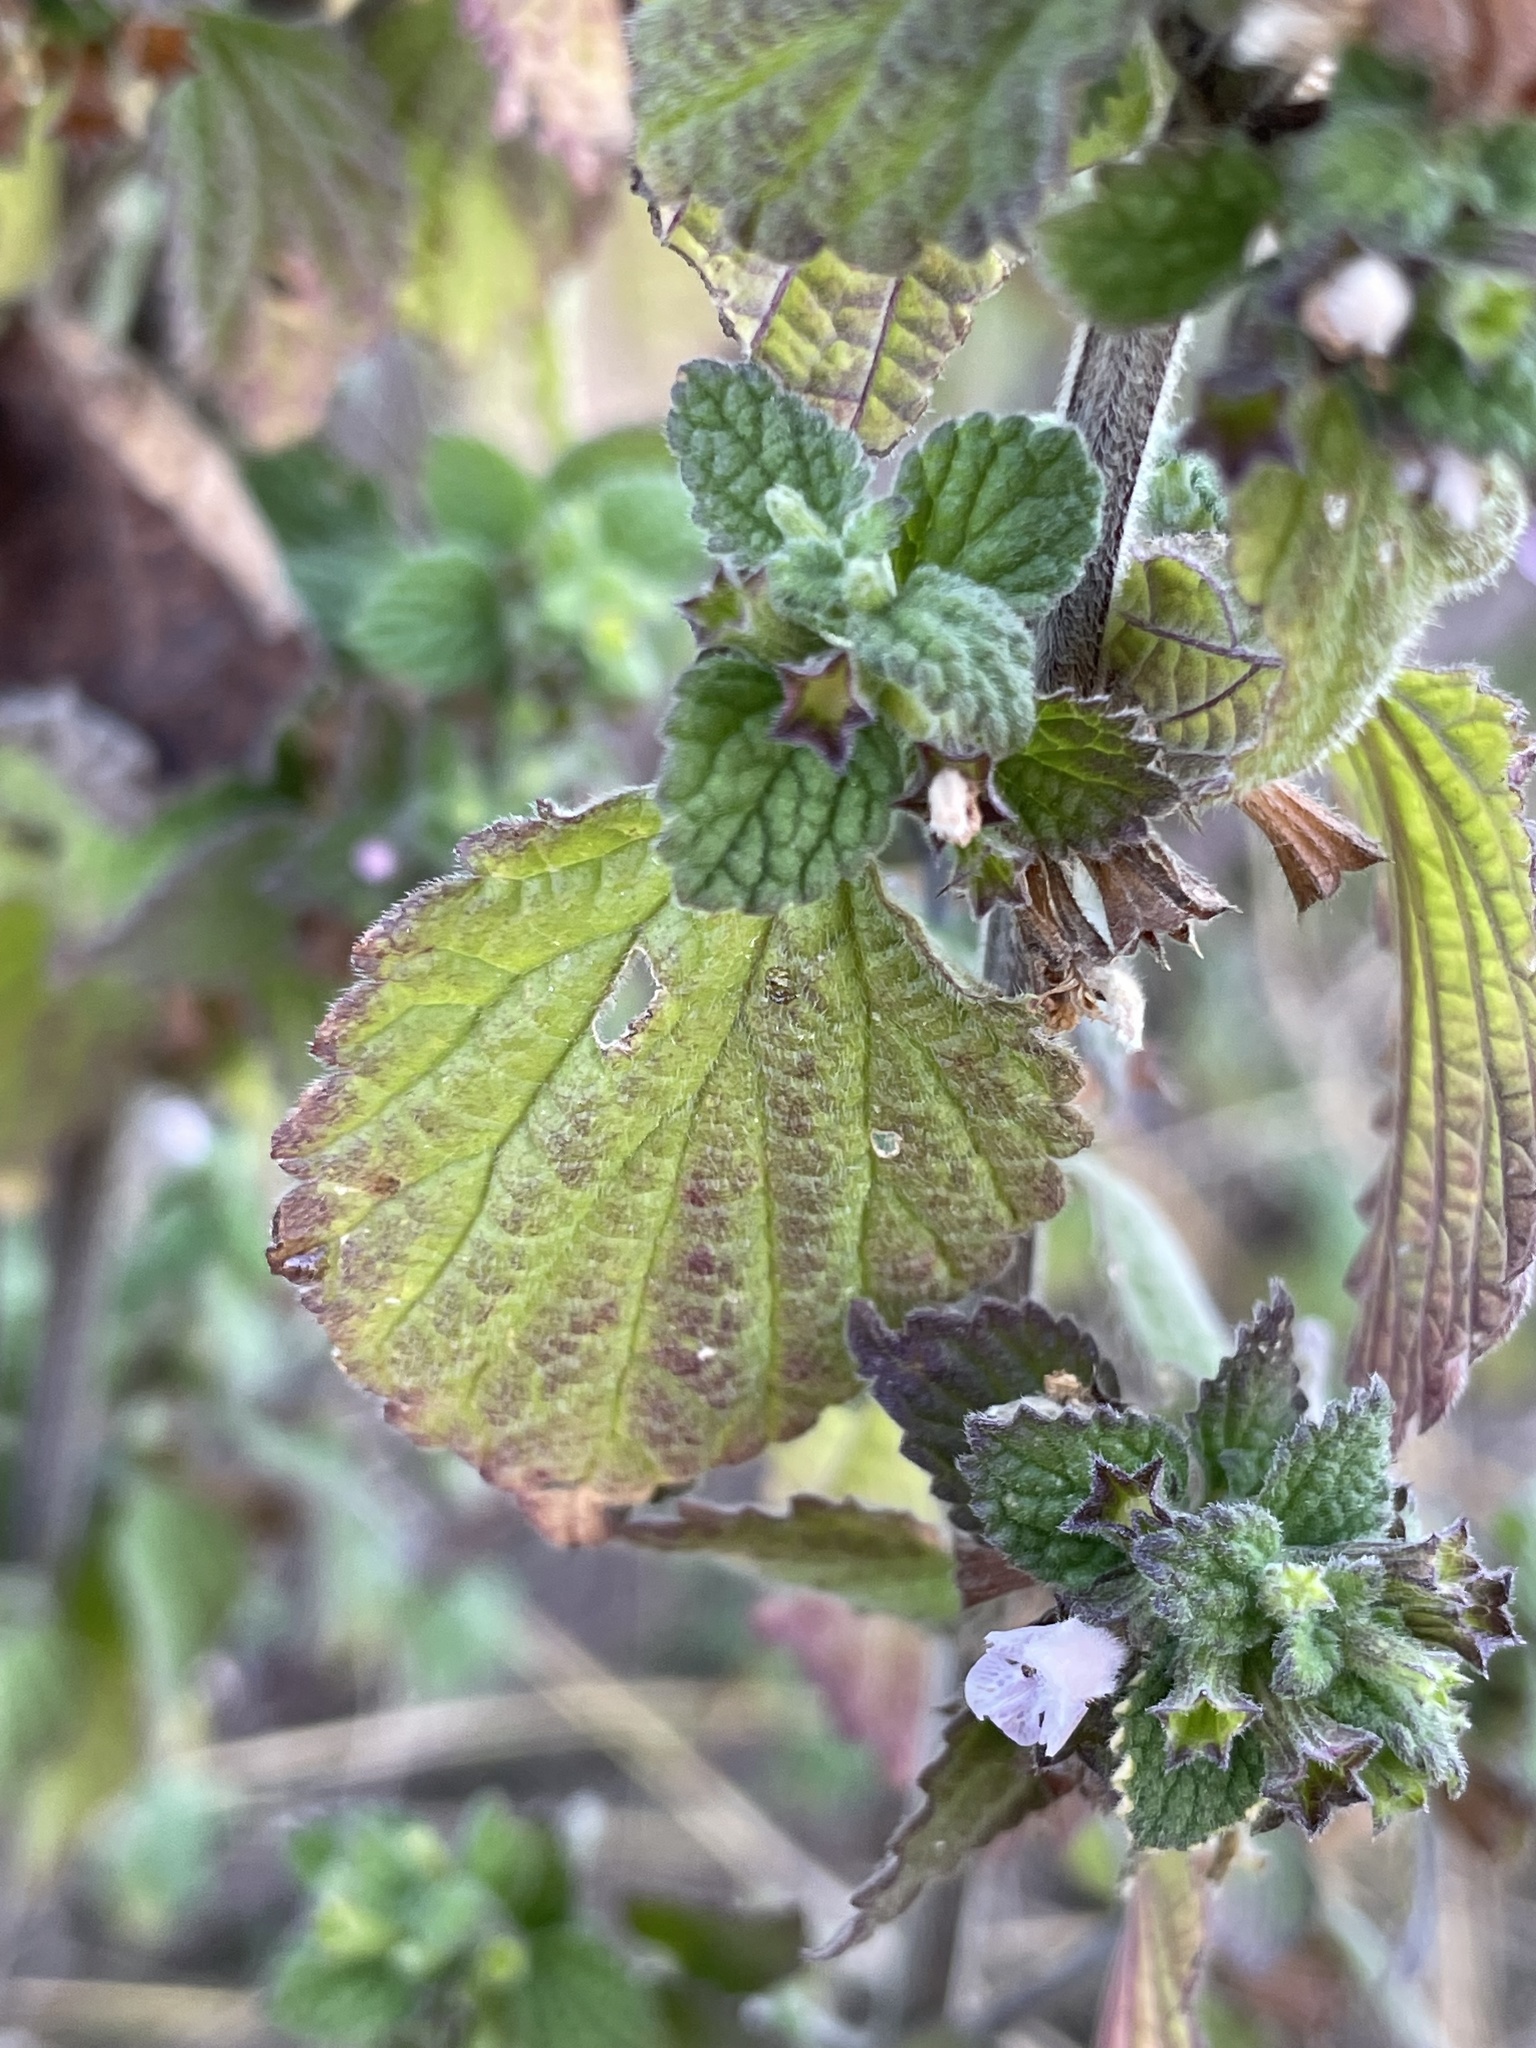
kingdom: Plantae
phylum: Tracheophyta
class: Magnoliopsida
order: Lamiales
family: Lamiaceae
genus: Ballota
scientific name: Ballota nigra
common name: Black horehound
